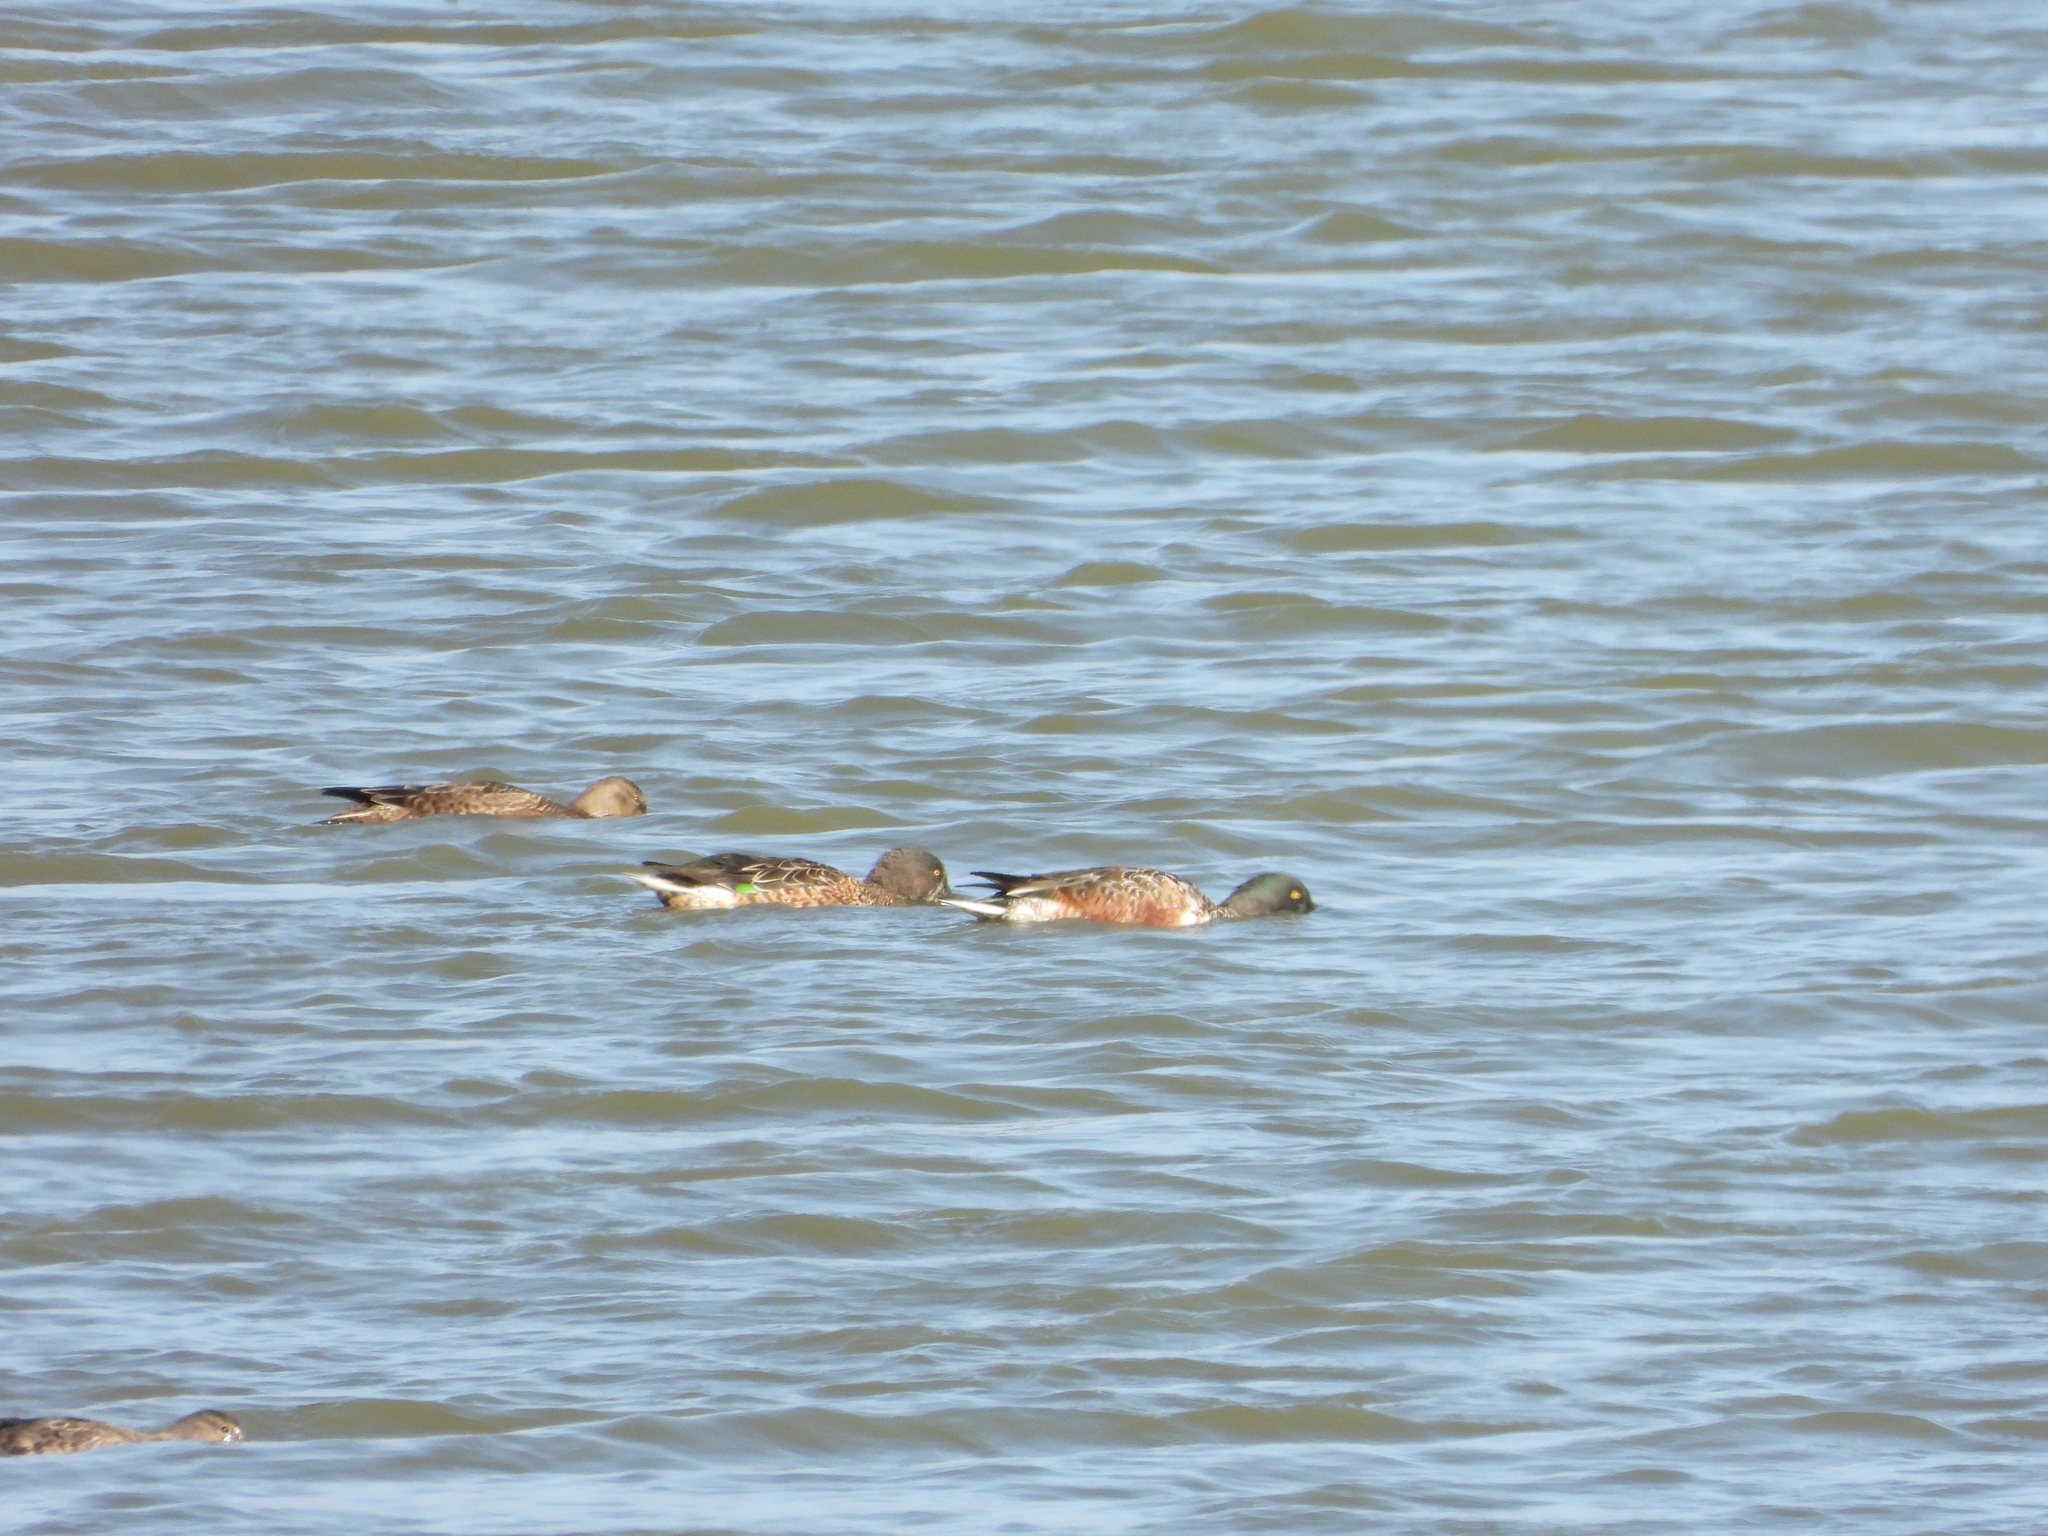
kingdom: Animalia
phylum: Chordata
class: Aves
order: Anseriformes
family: Anatidae
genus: Spatula
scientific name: Spatula clypeata
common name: Northern shoveler
